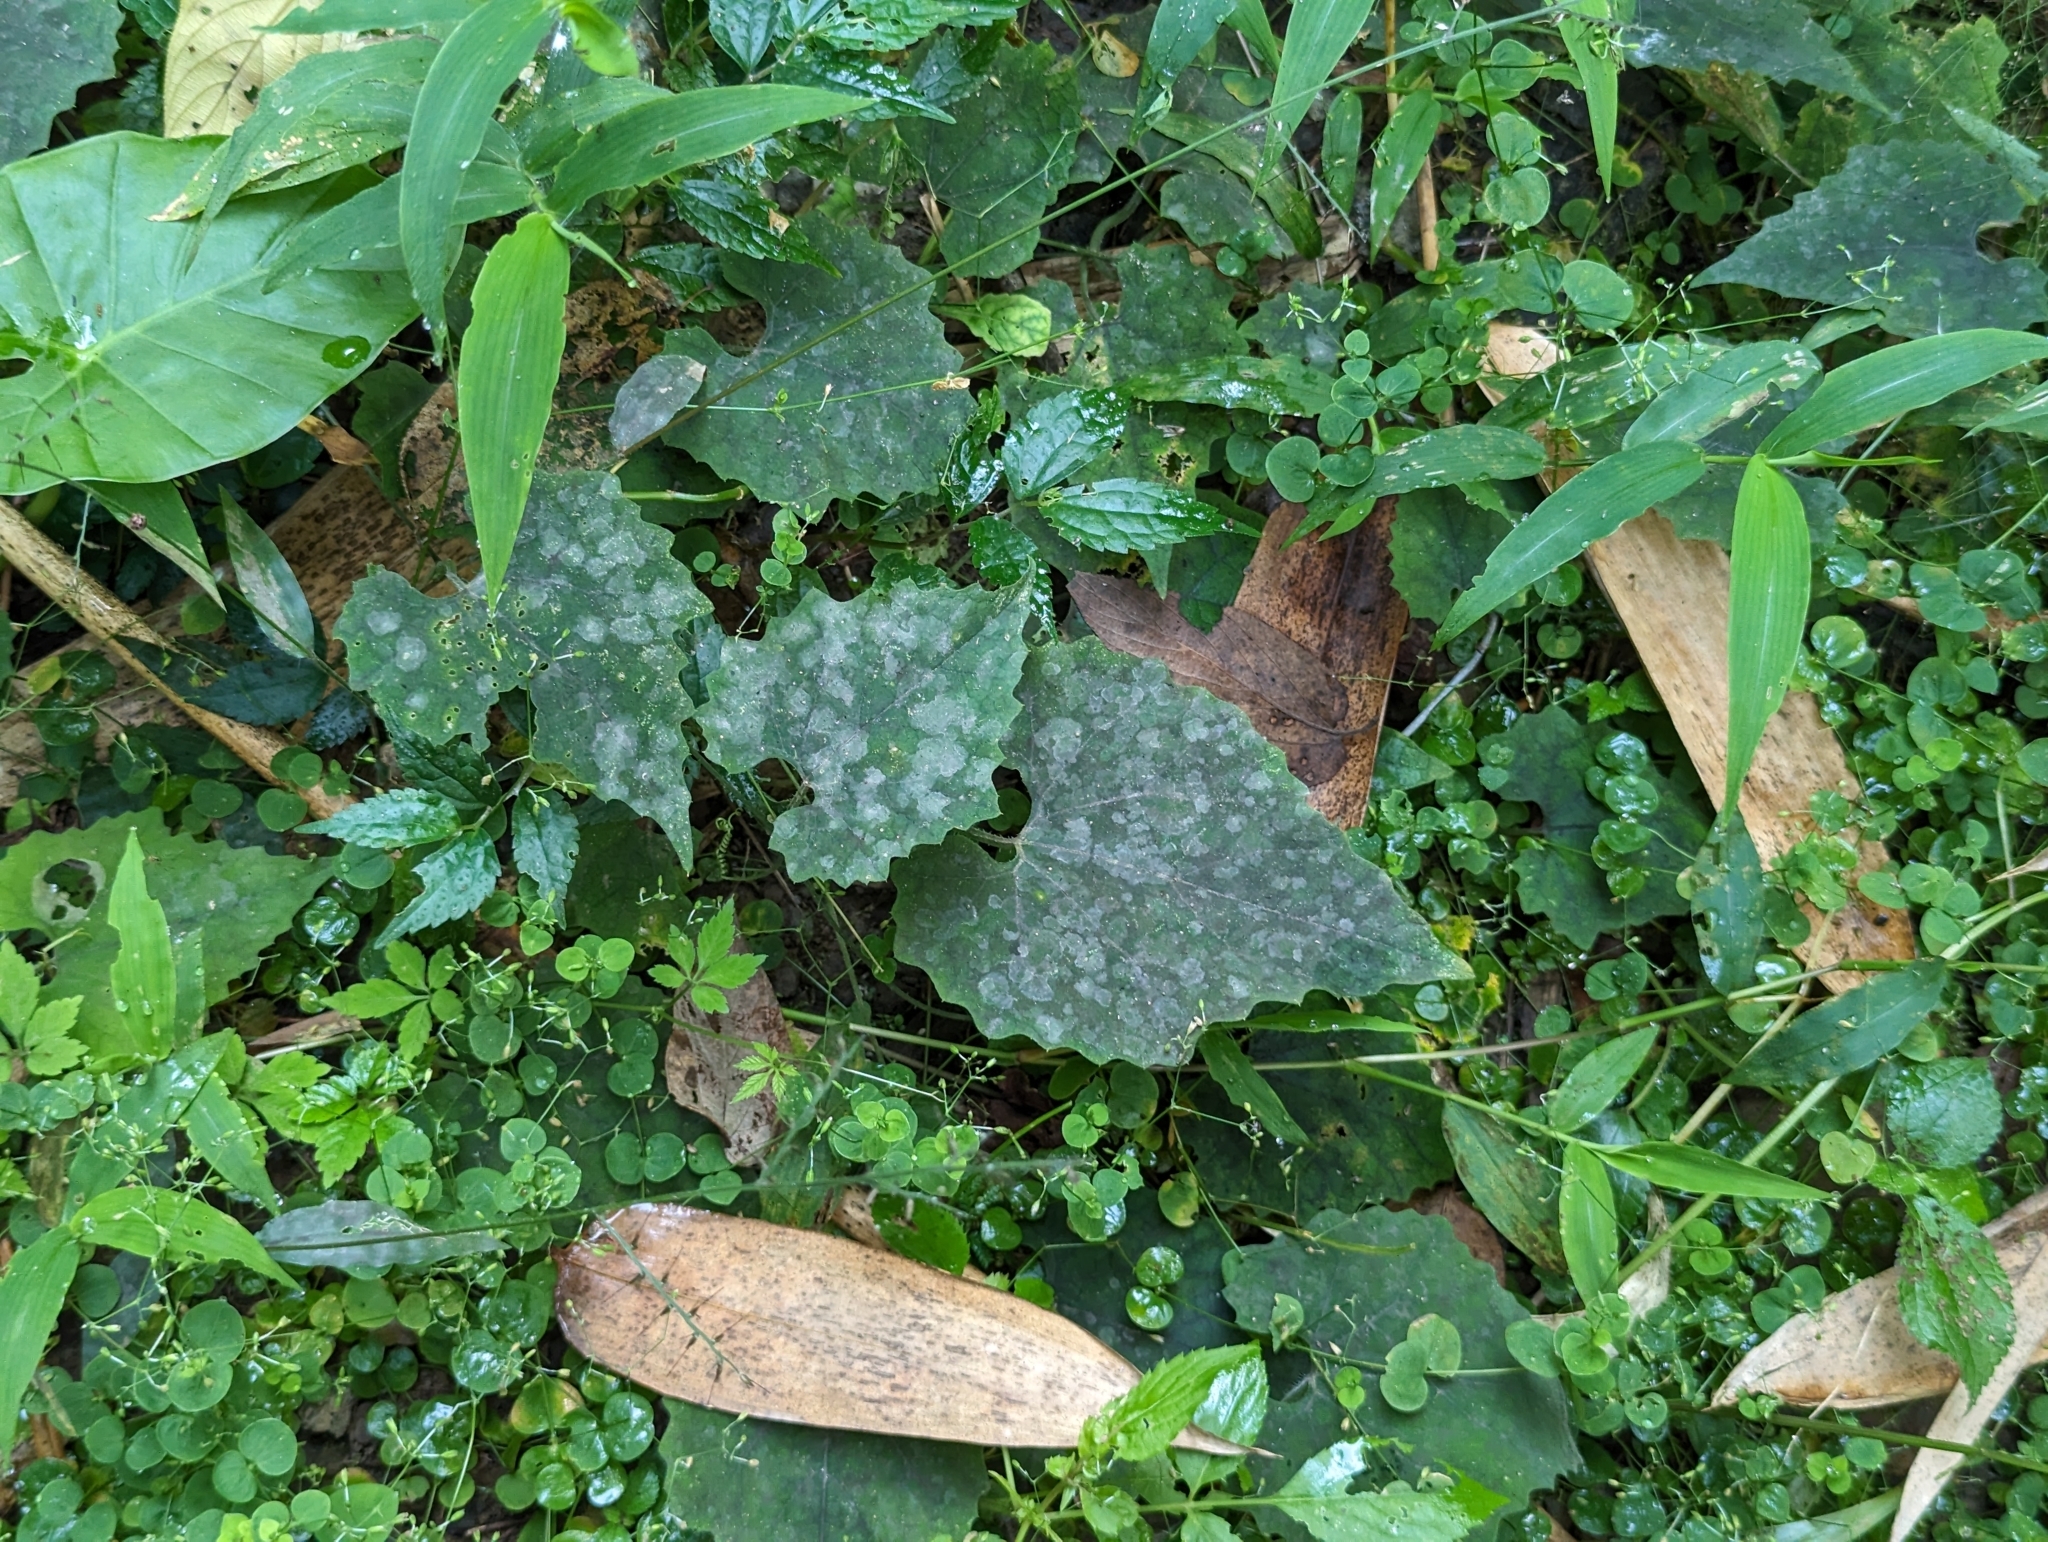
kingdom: Plantae
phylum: Tracheophyta
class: Magnoliopsida
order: Cucurbitales
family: Cucurbitaceae
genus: Trichosanthes
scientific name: Trichosanthes cucumeroides
